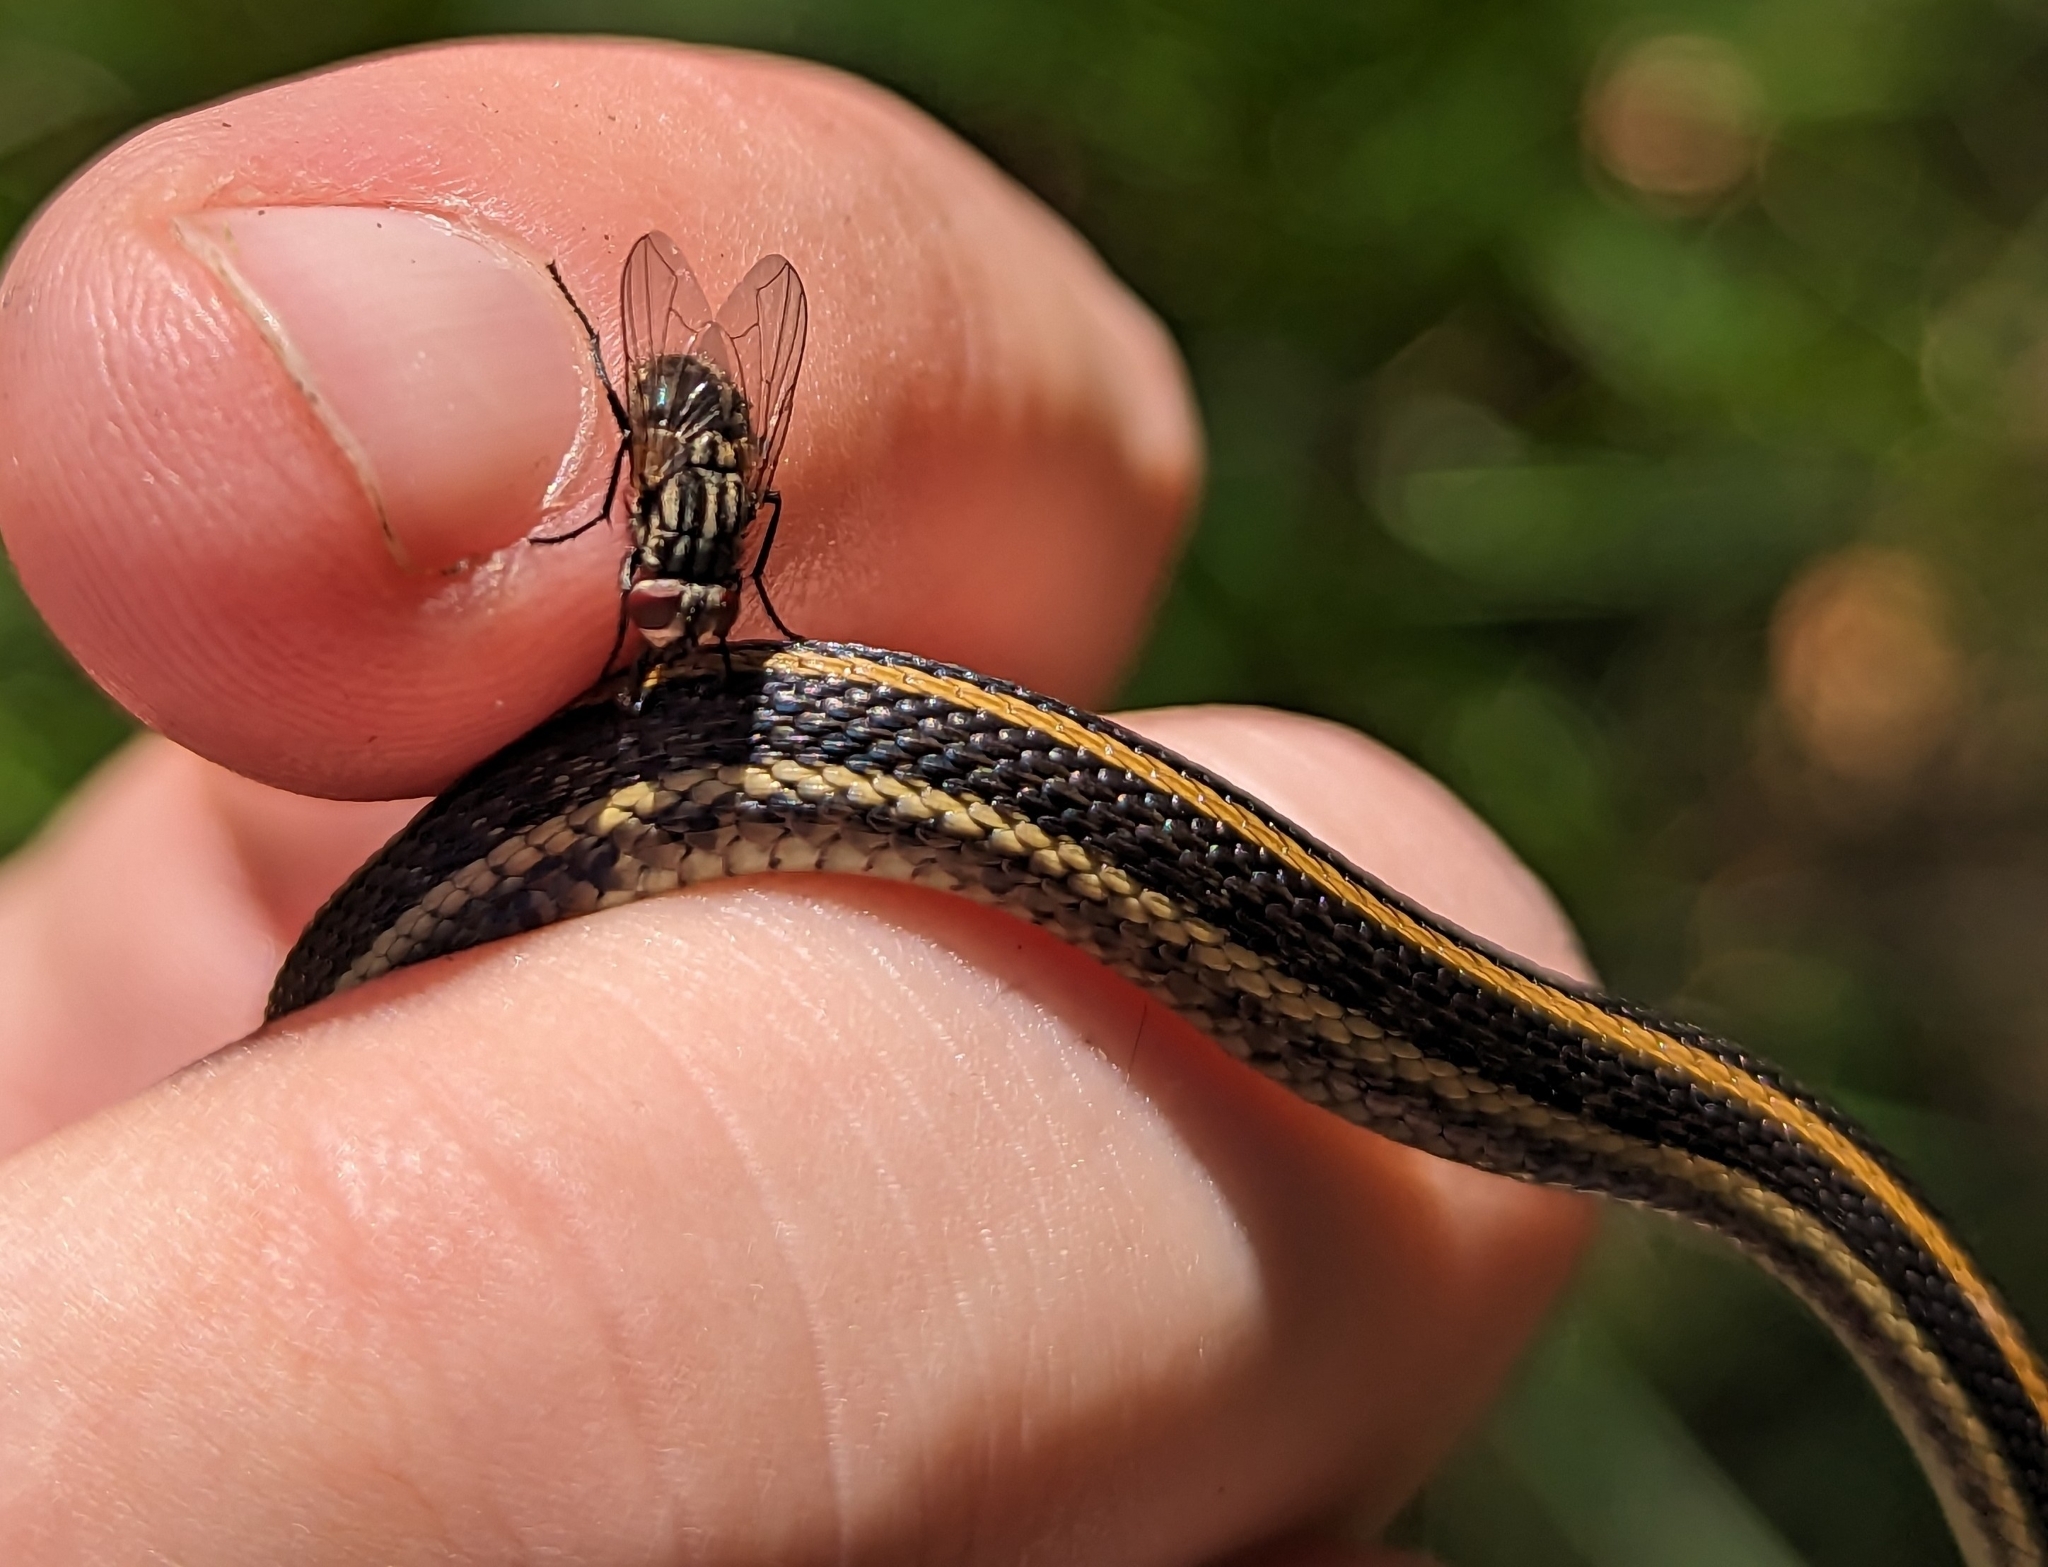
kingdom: Animalia
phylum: Chordata
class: Squamata
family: Colubridae
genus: Thamnophis
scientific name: Thamnophis radix
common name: Plains garter snake
